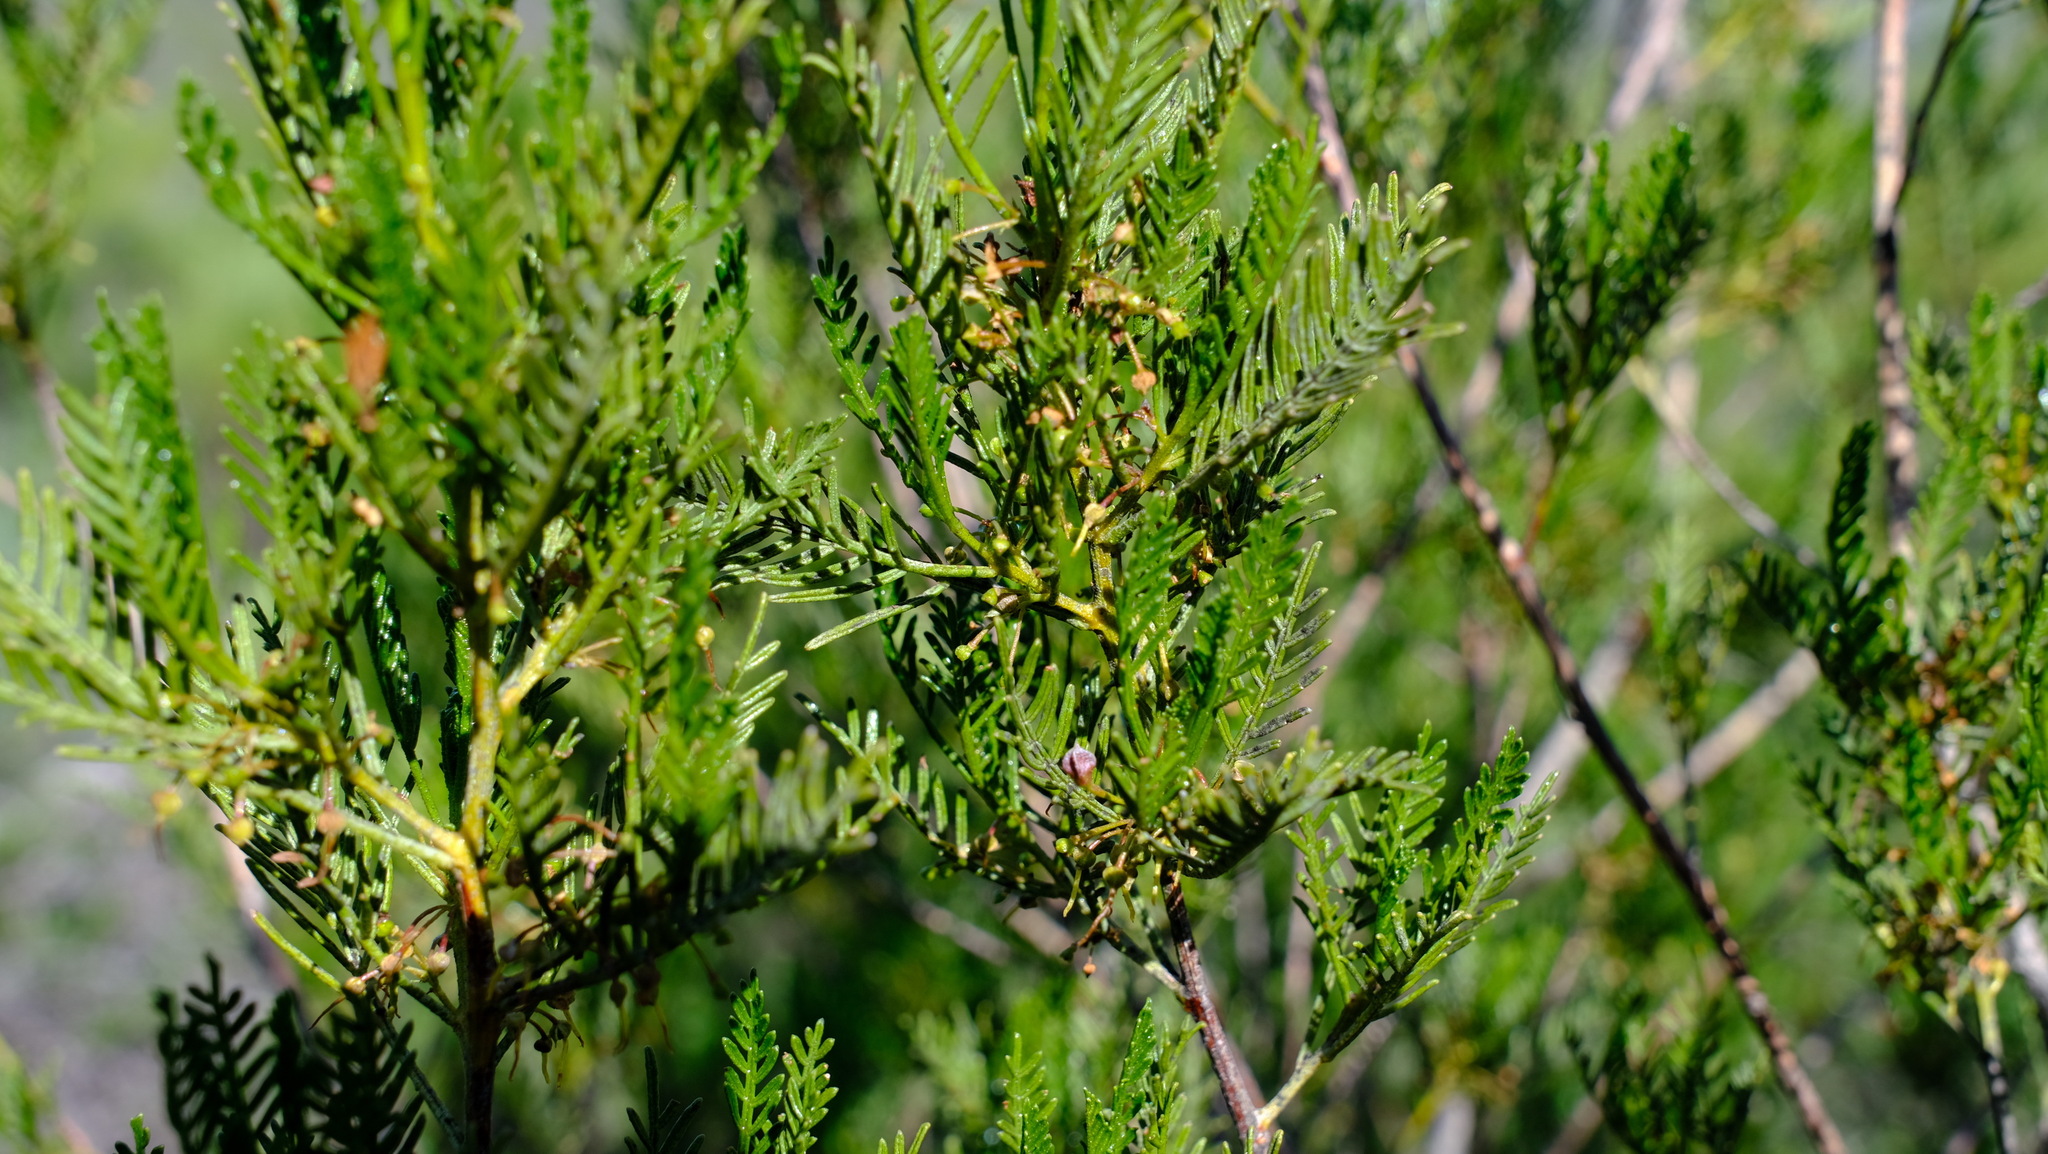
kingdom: Plantae
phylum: Tracheophyta
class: Magnoliopsida
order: Sapindales
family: Sapindaceae
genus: Dodonaea
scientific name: Dodonaea inaequifolia
